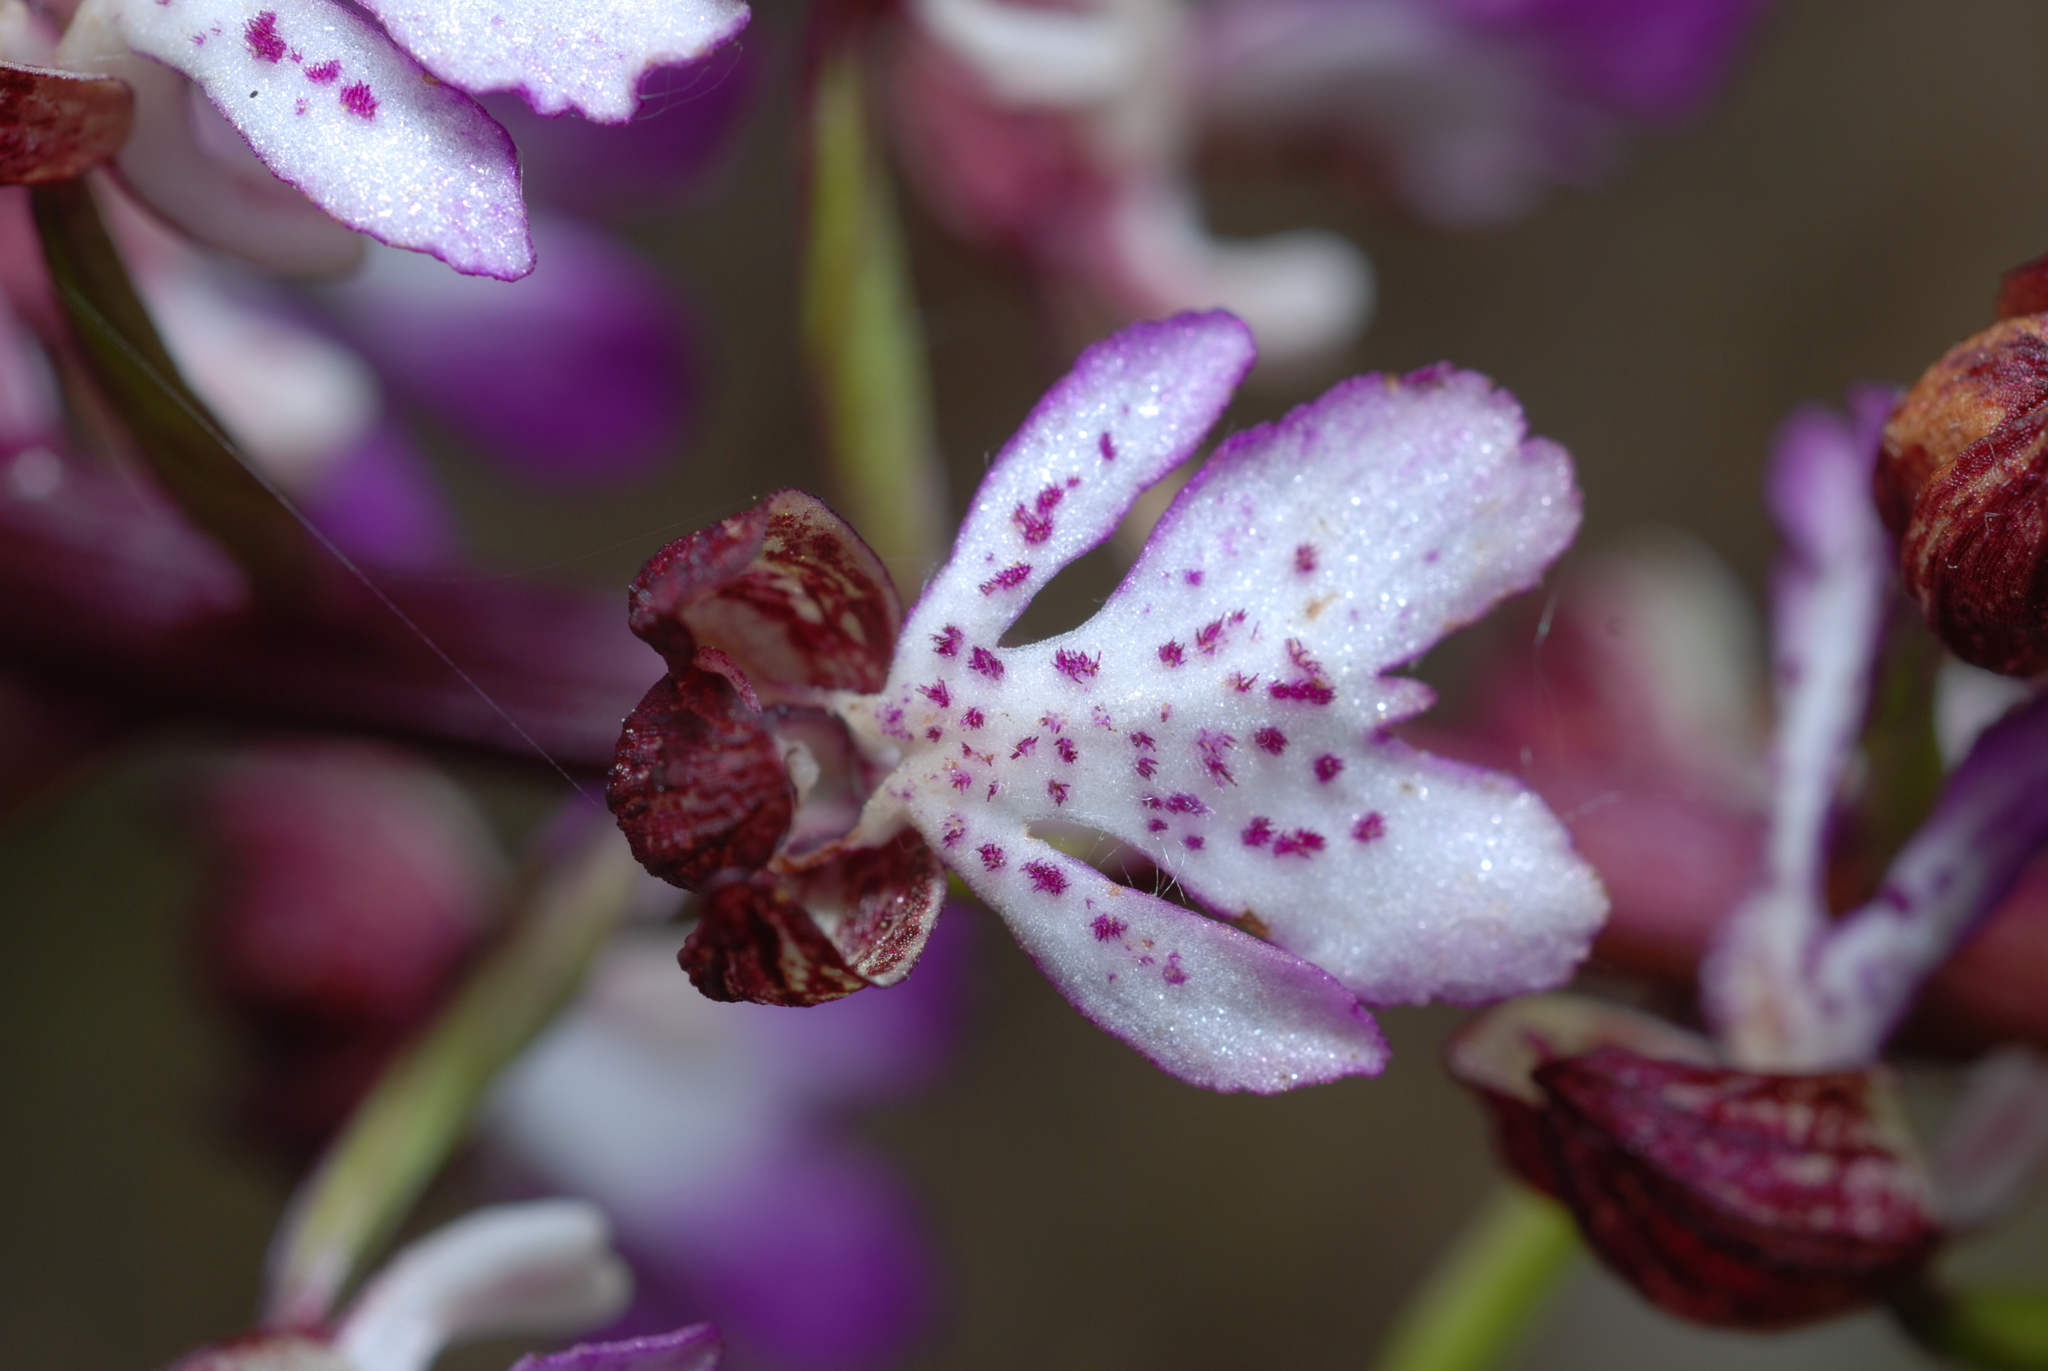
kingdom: Plantae
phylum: Tracheophyta
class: Liliopsida
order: Asparagales
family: Orchidaceae
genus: Orchis
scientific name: Orchis purpurea
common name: Lady orchid
